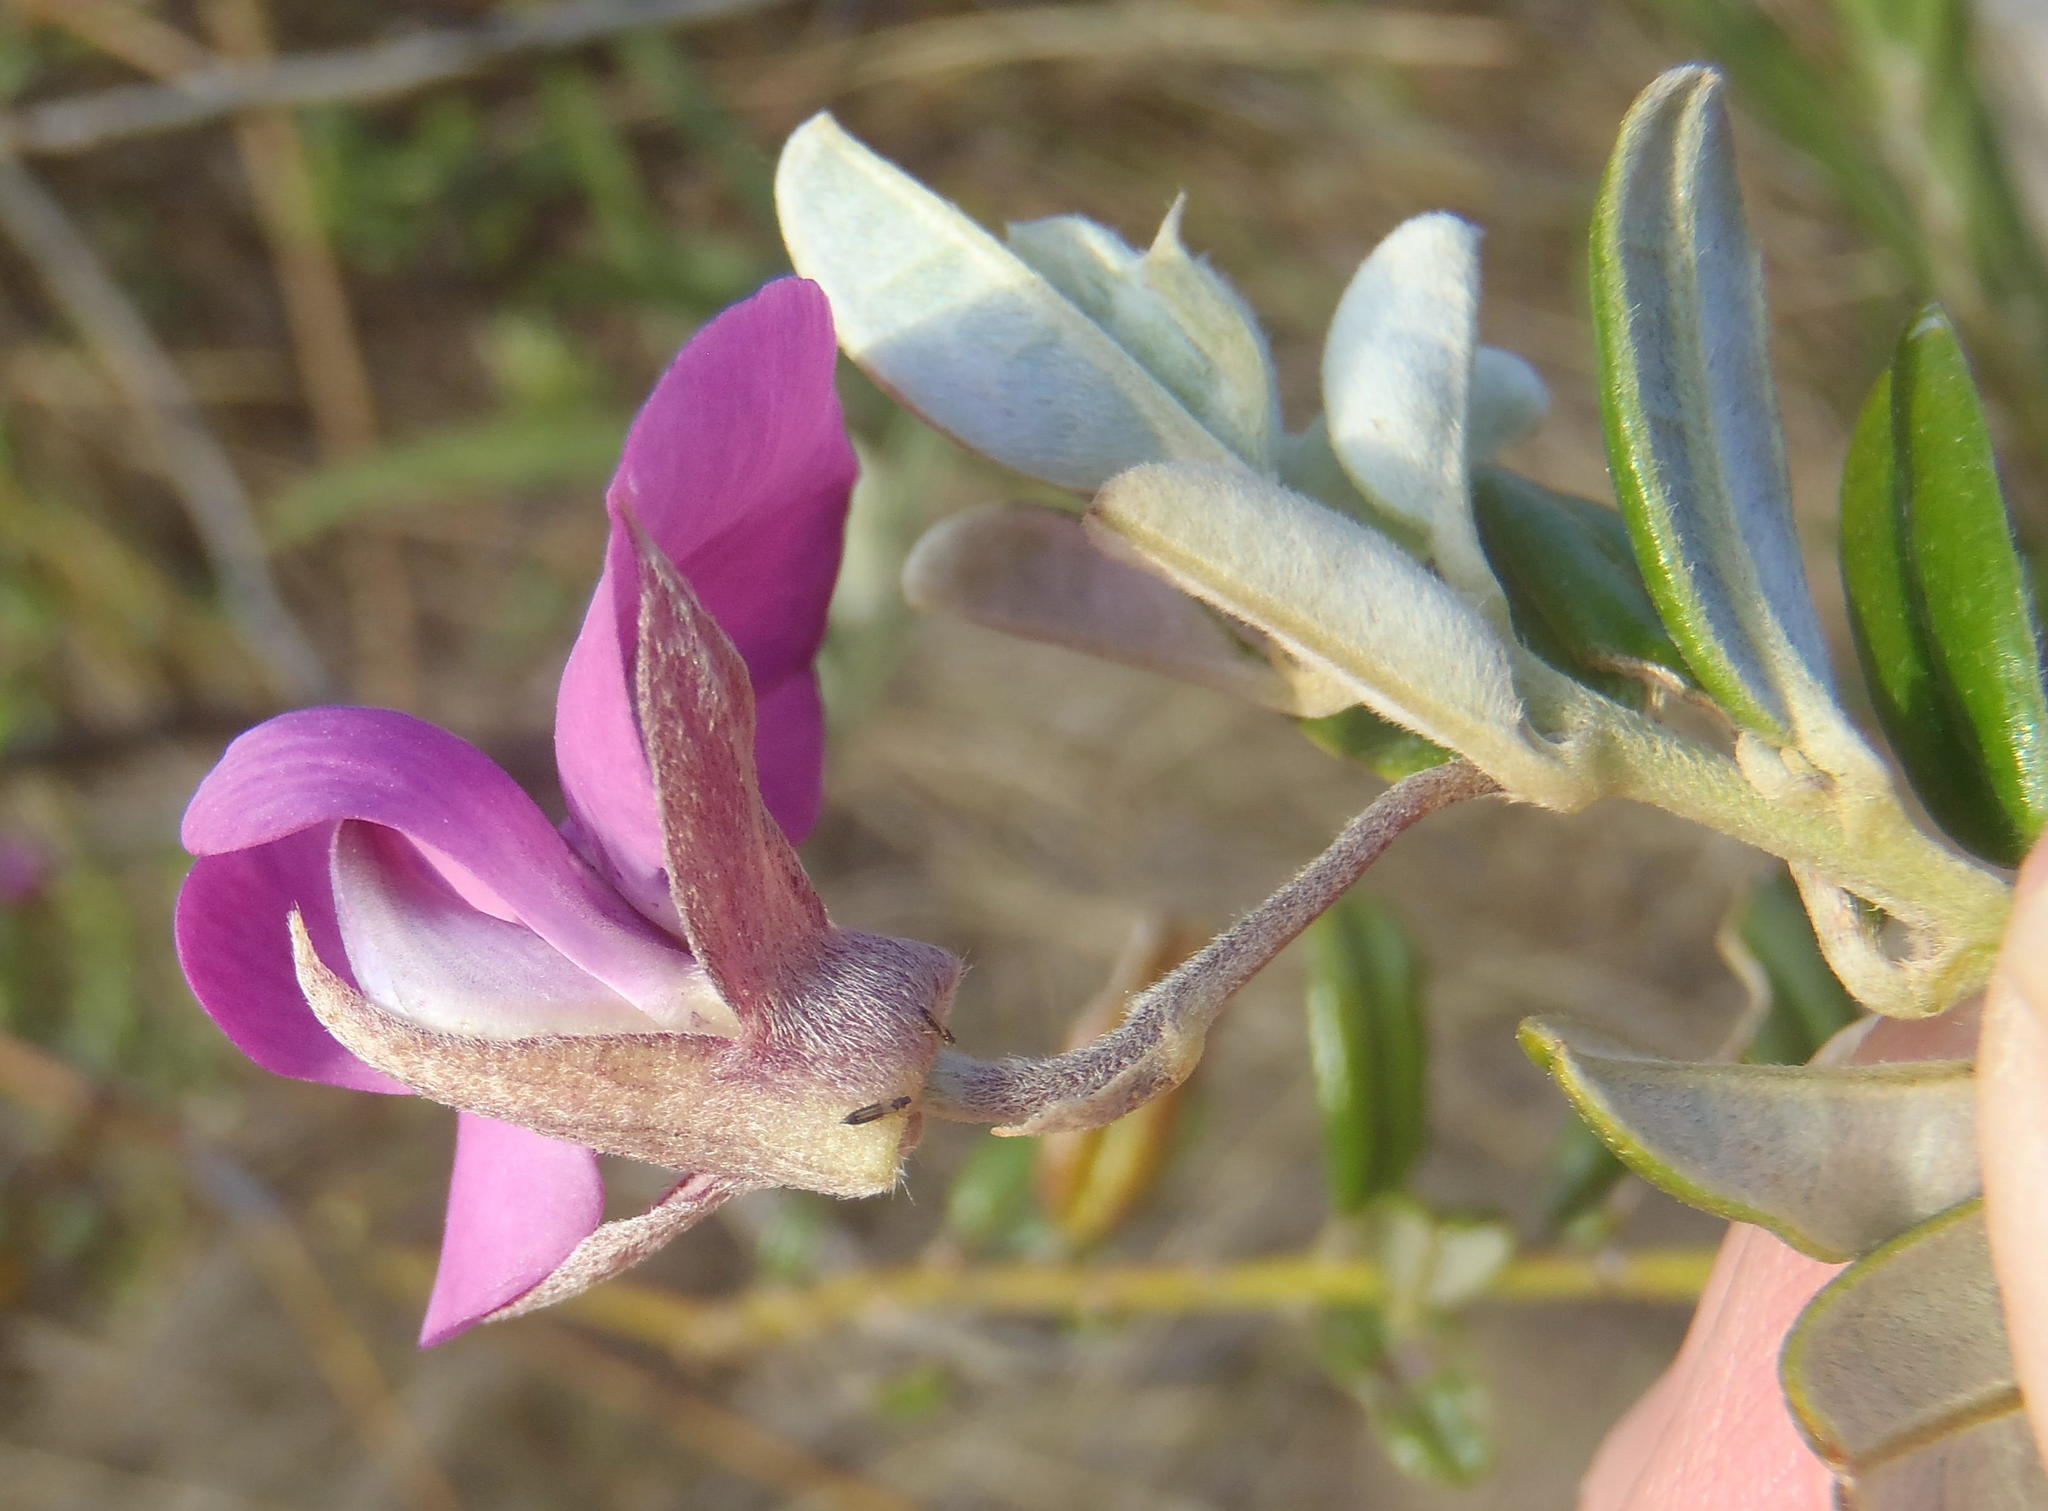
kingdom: Plantae
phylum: Tracheophyta
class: Magnoliopsida
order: Fabales
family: Fabaceae
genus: Podalyria
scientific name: Podalyria buxifolia
